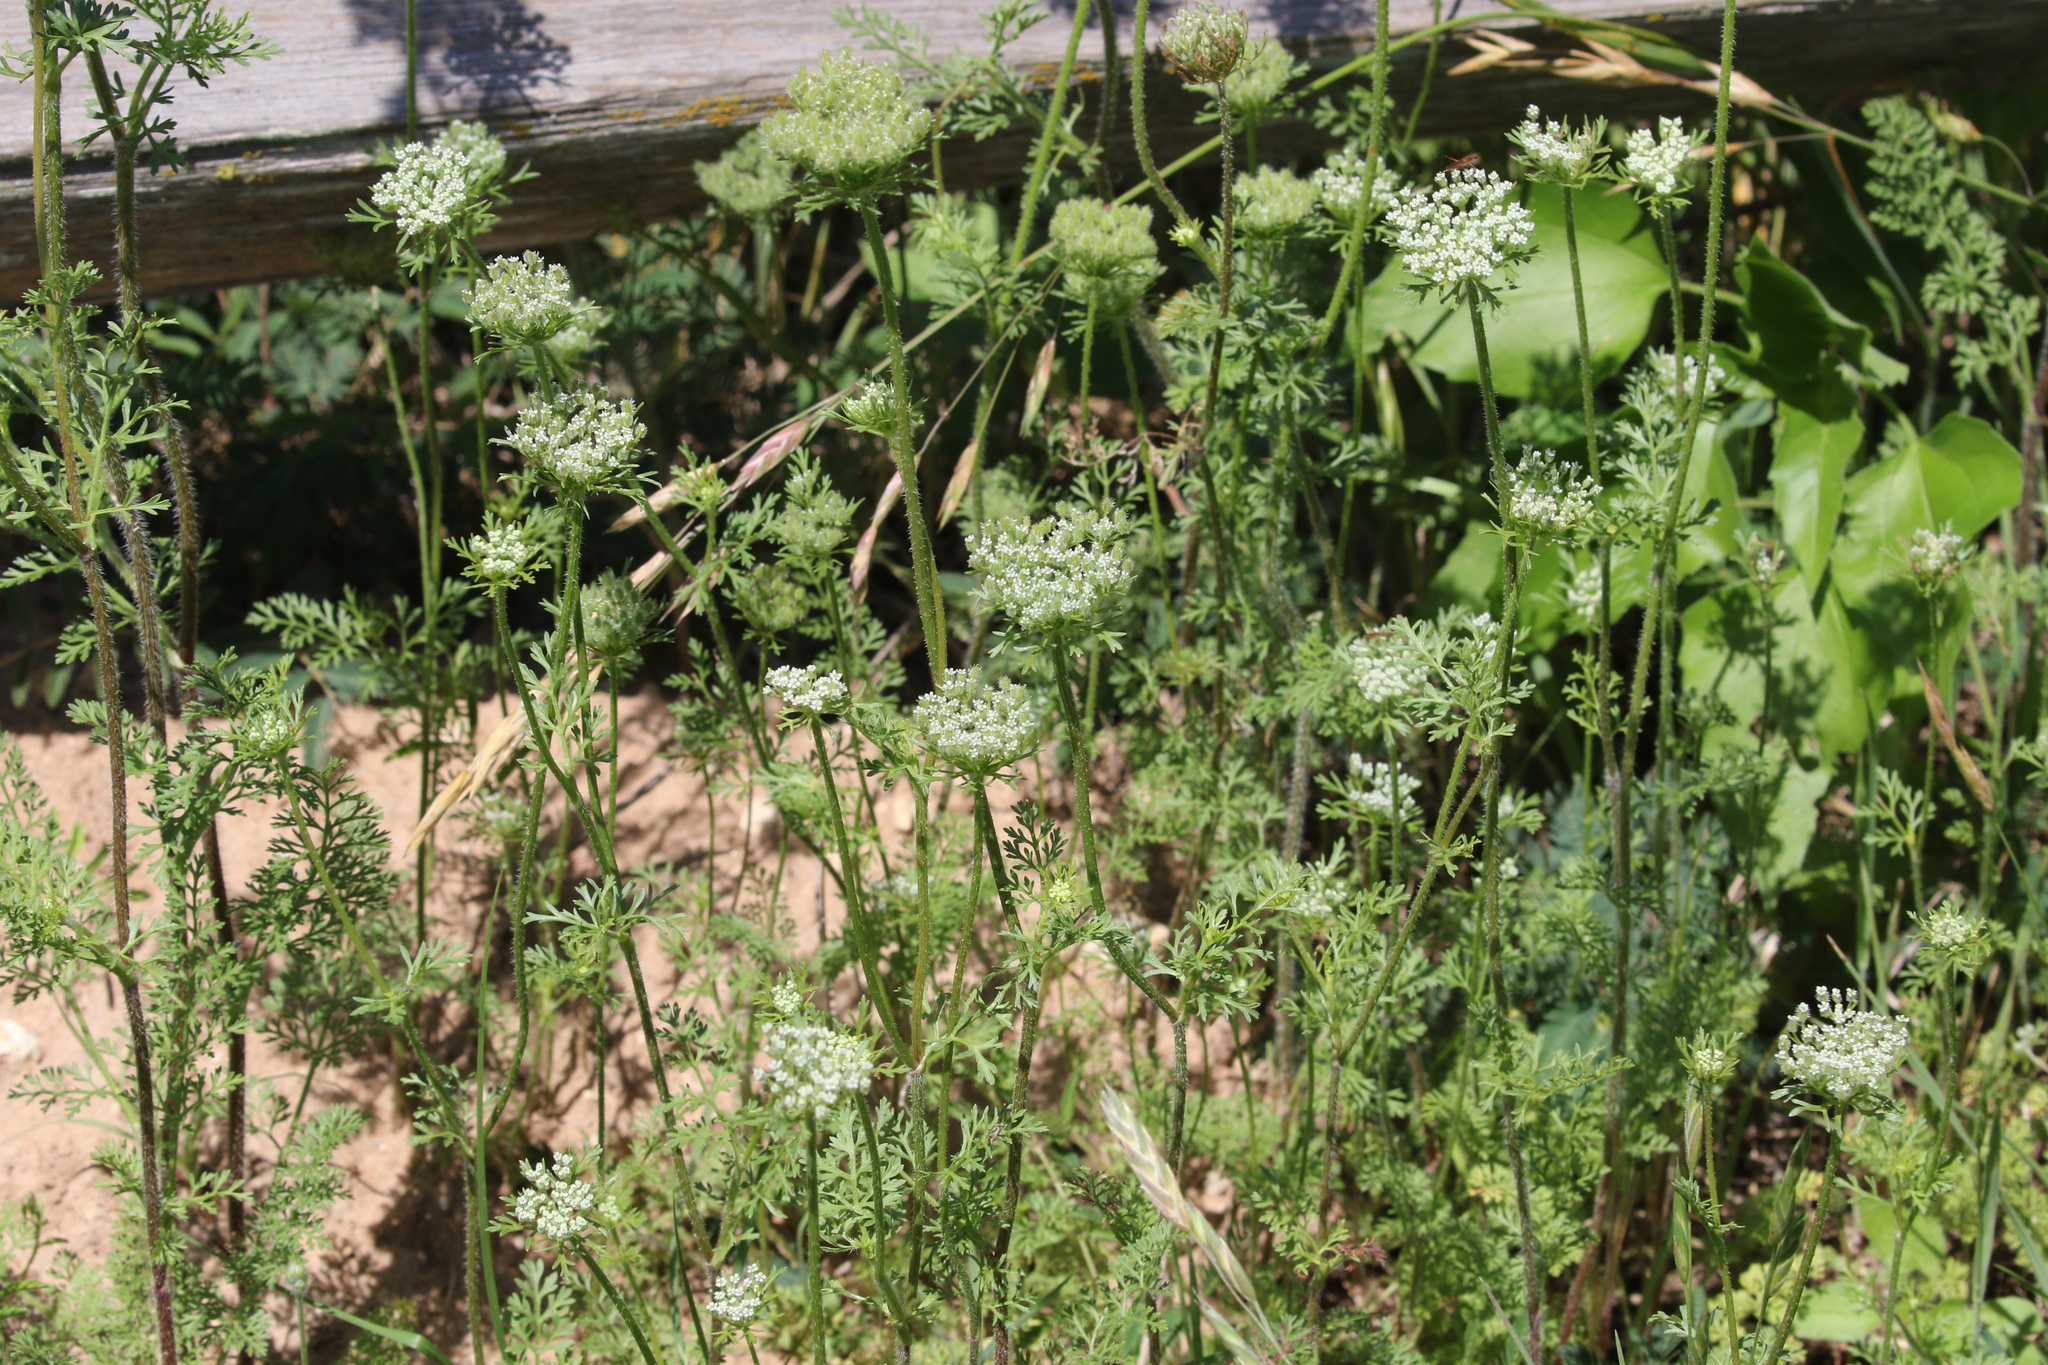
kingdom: Plantae
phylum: Tracheophyta
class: Magnoliopsida
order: Apiales
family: Apiaceae
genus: Daucus
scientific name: Daucus pusillus
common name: Southwest wild carrot
